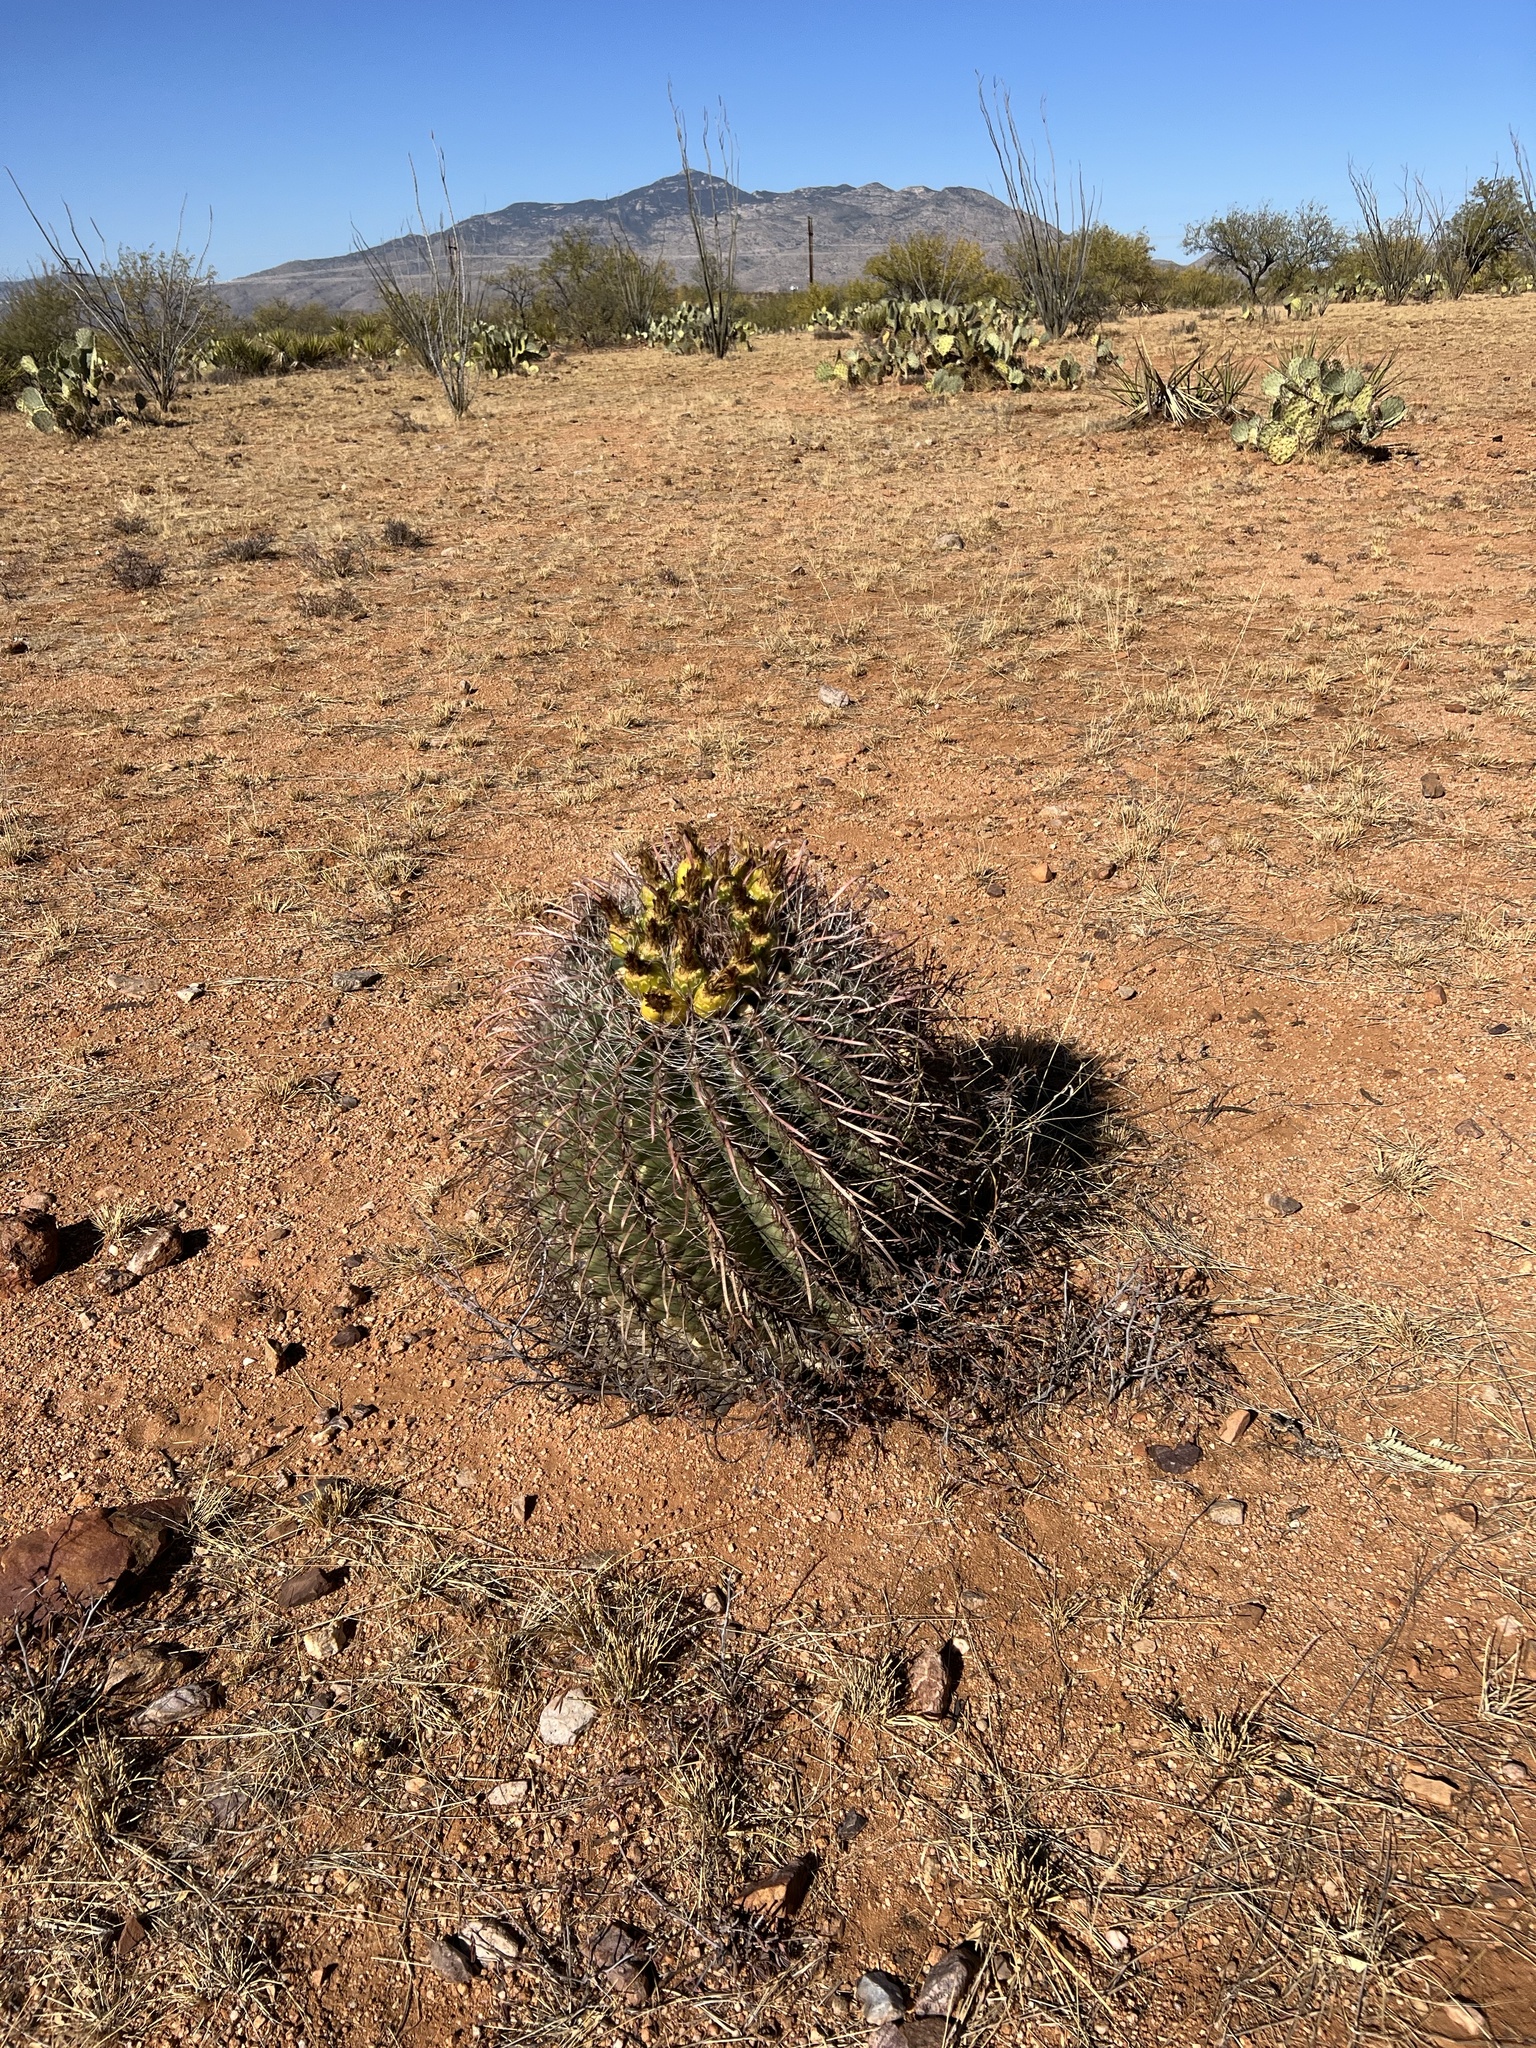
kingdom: Plantae
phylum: Tracheophyta
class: Magnoliopsida
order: Caryophyllales
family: Cactaceae
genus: Ferocactus
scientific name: Ferocactus wislizeni
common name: Candy barrel cactus
